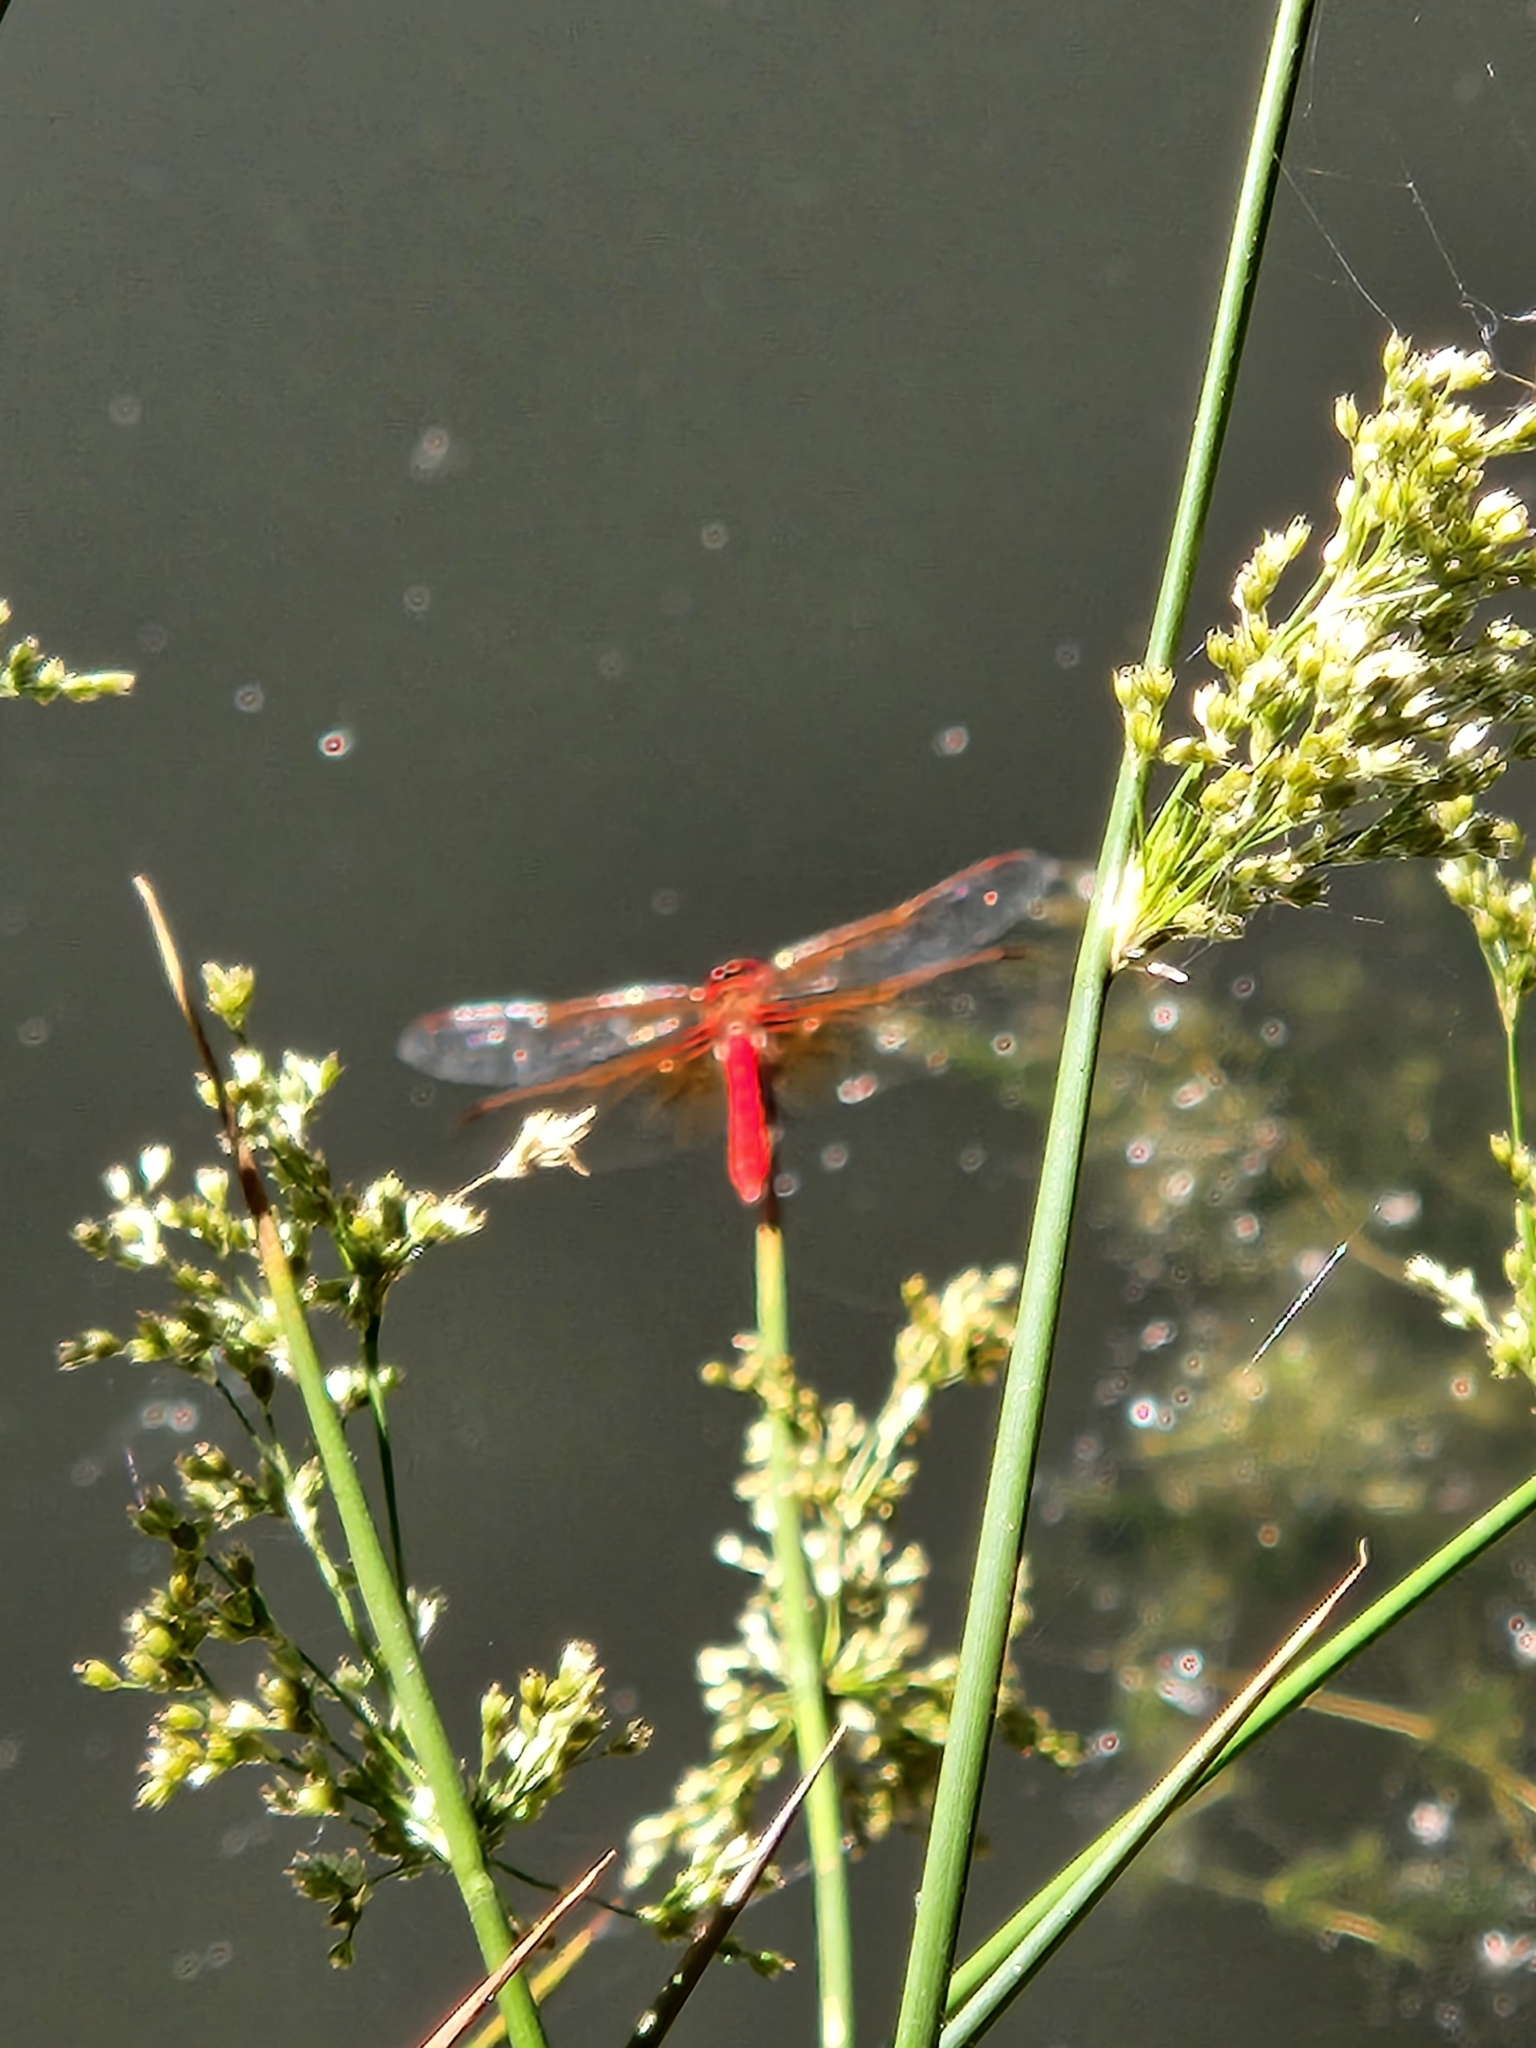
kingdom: Animalia
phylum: Arthropoda
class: Insecta
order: Odonata
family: Libellulidae
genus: Sympetrum
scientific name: Sympetrum illotum
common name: Cardinal meadowhawk
